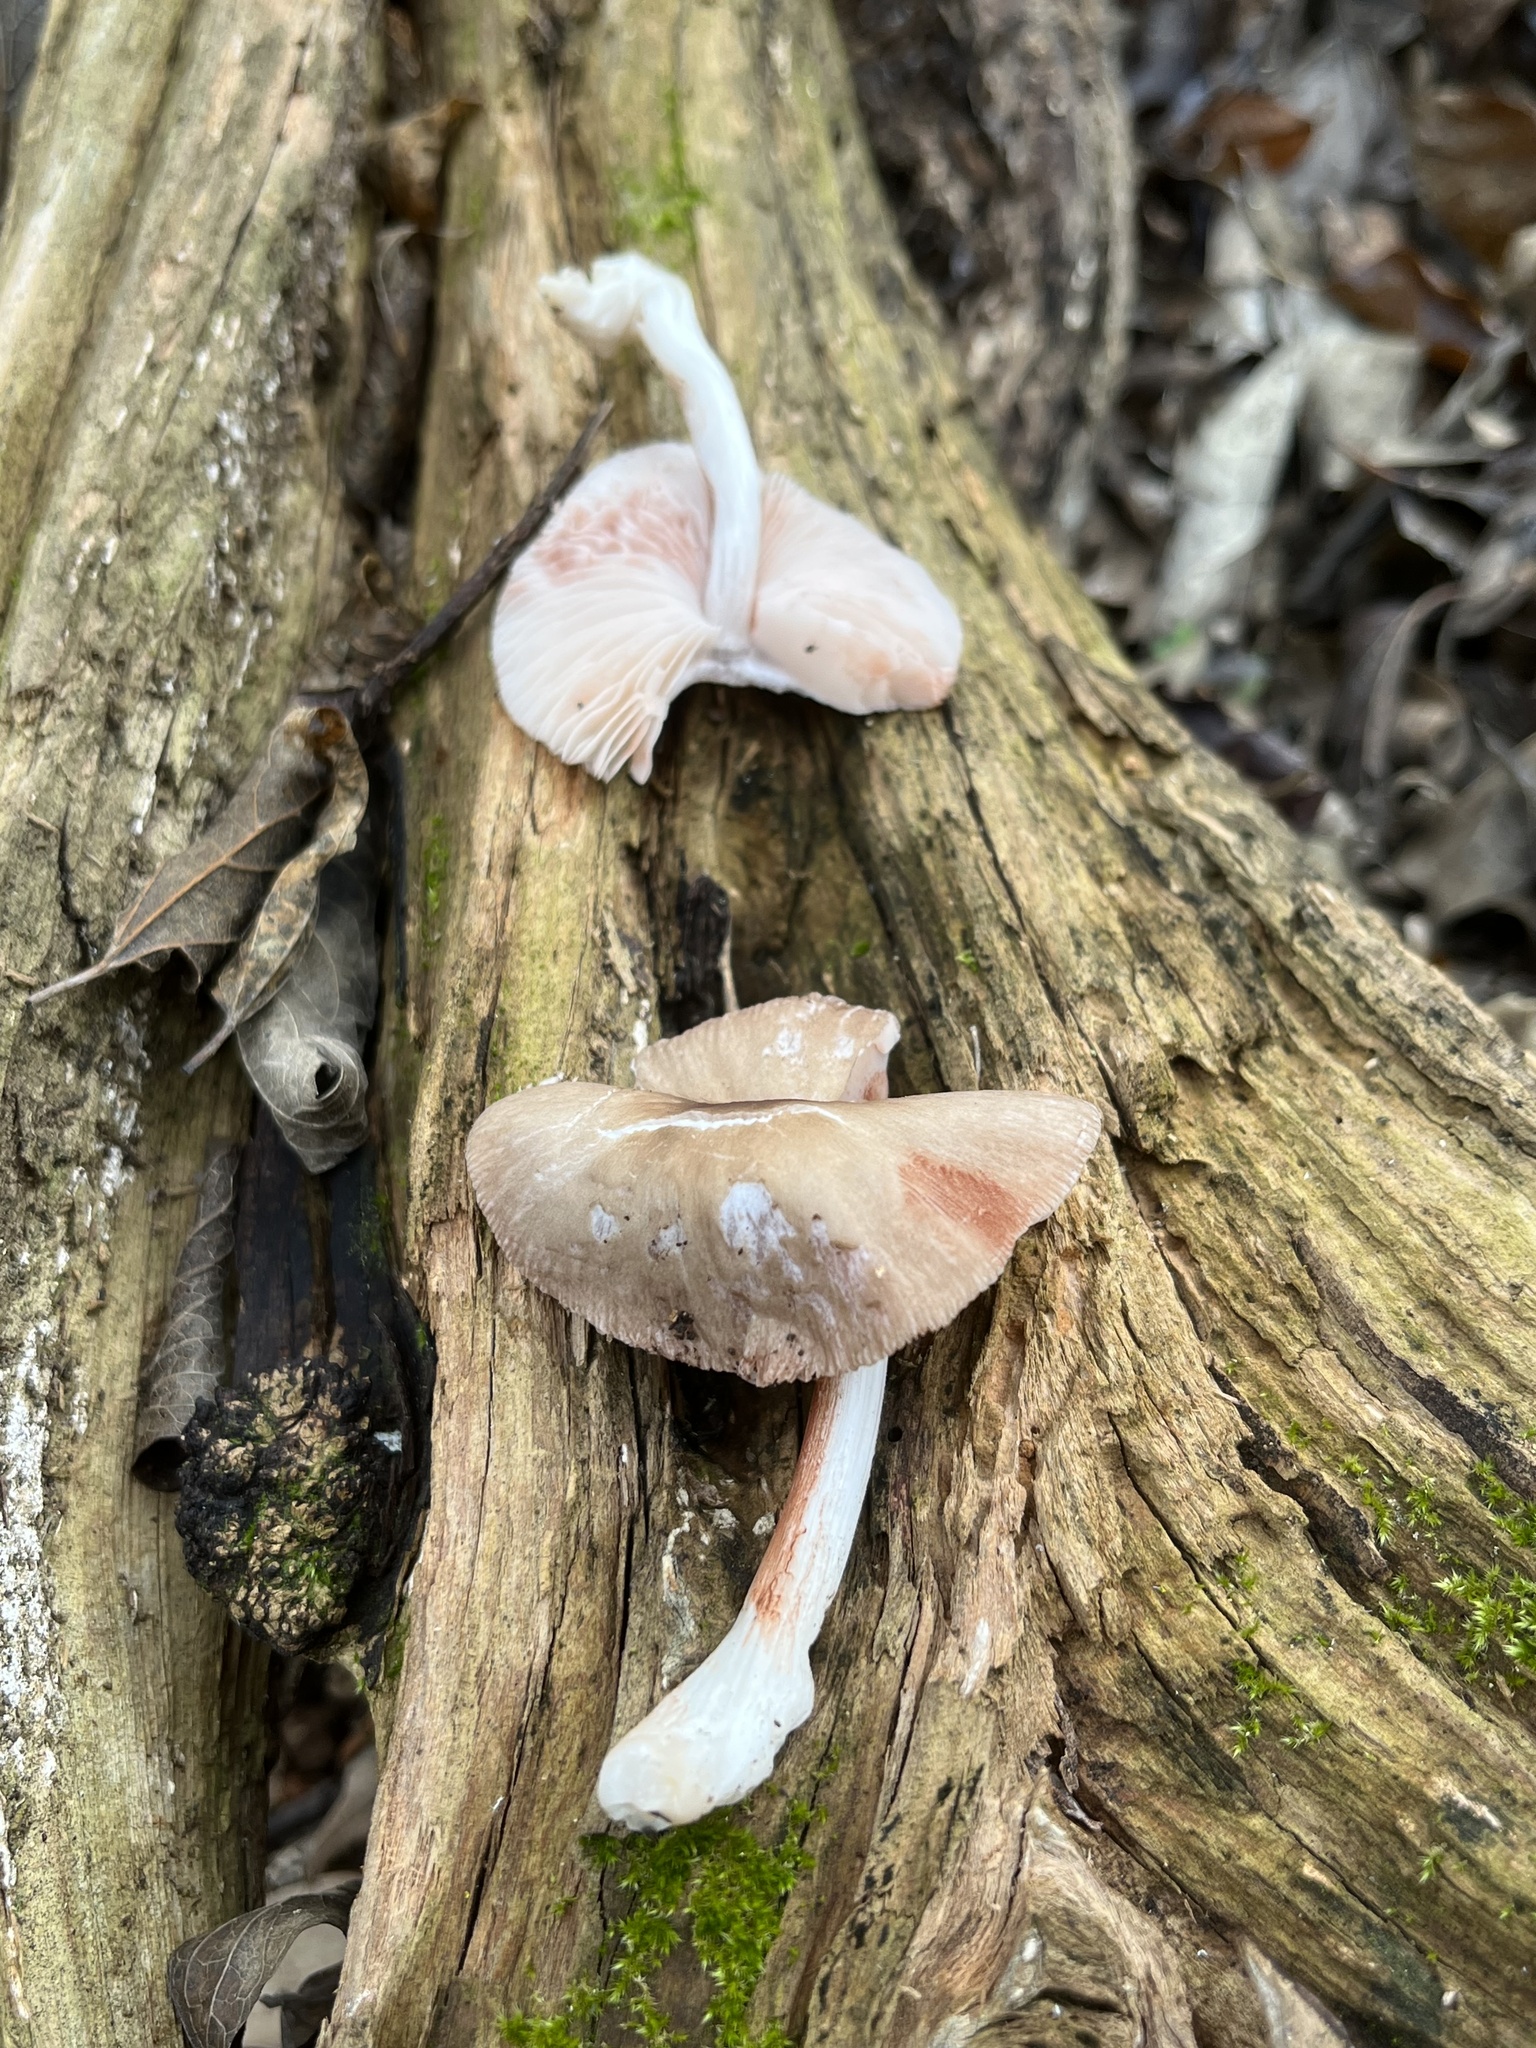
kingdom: Fungi
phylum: Basidiomycota
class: Agaricomycetes
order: Agaricales
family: Pluteaceae
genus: Pluteus
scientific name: Pluteus cervinus
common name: Deer shield
